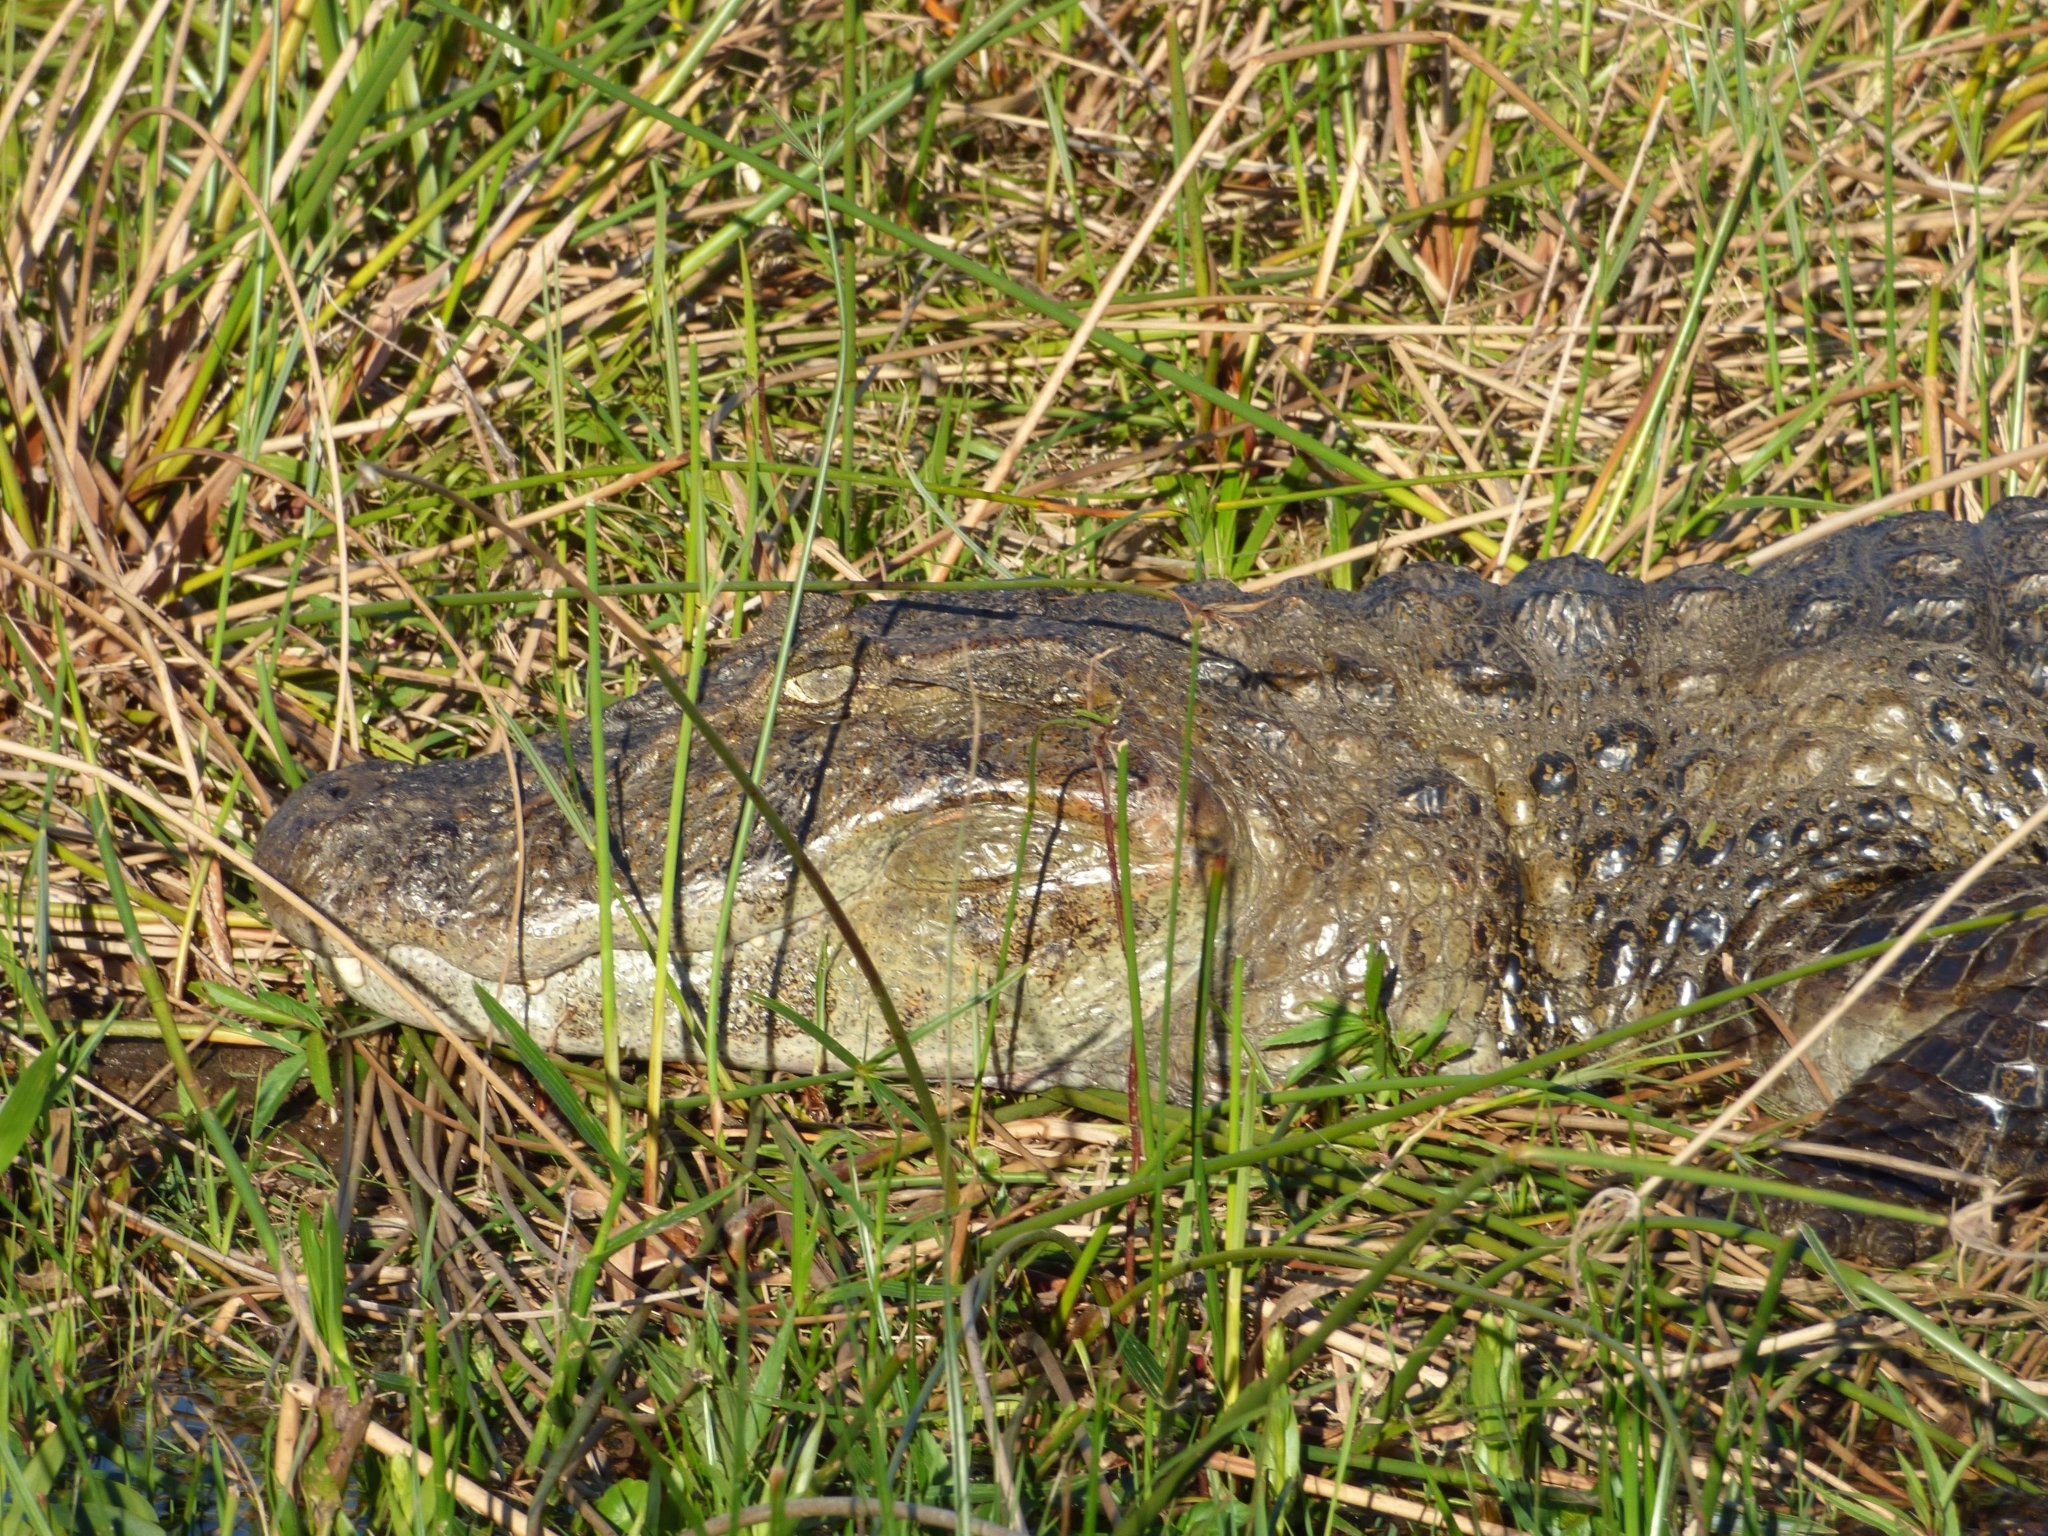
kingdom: Animalia
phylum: Chordata
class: Crocodylia
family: Alligatoridae
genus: Caiman
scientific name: Caiman latirostris
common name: Broad-snouted caiman
